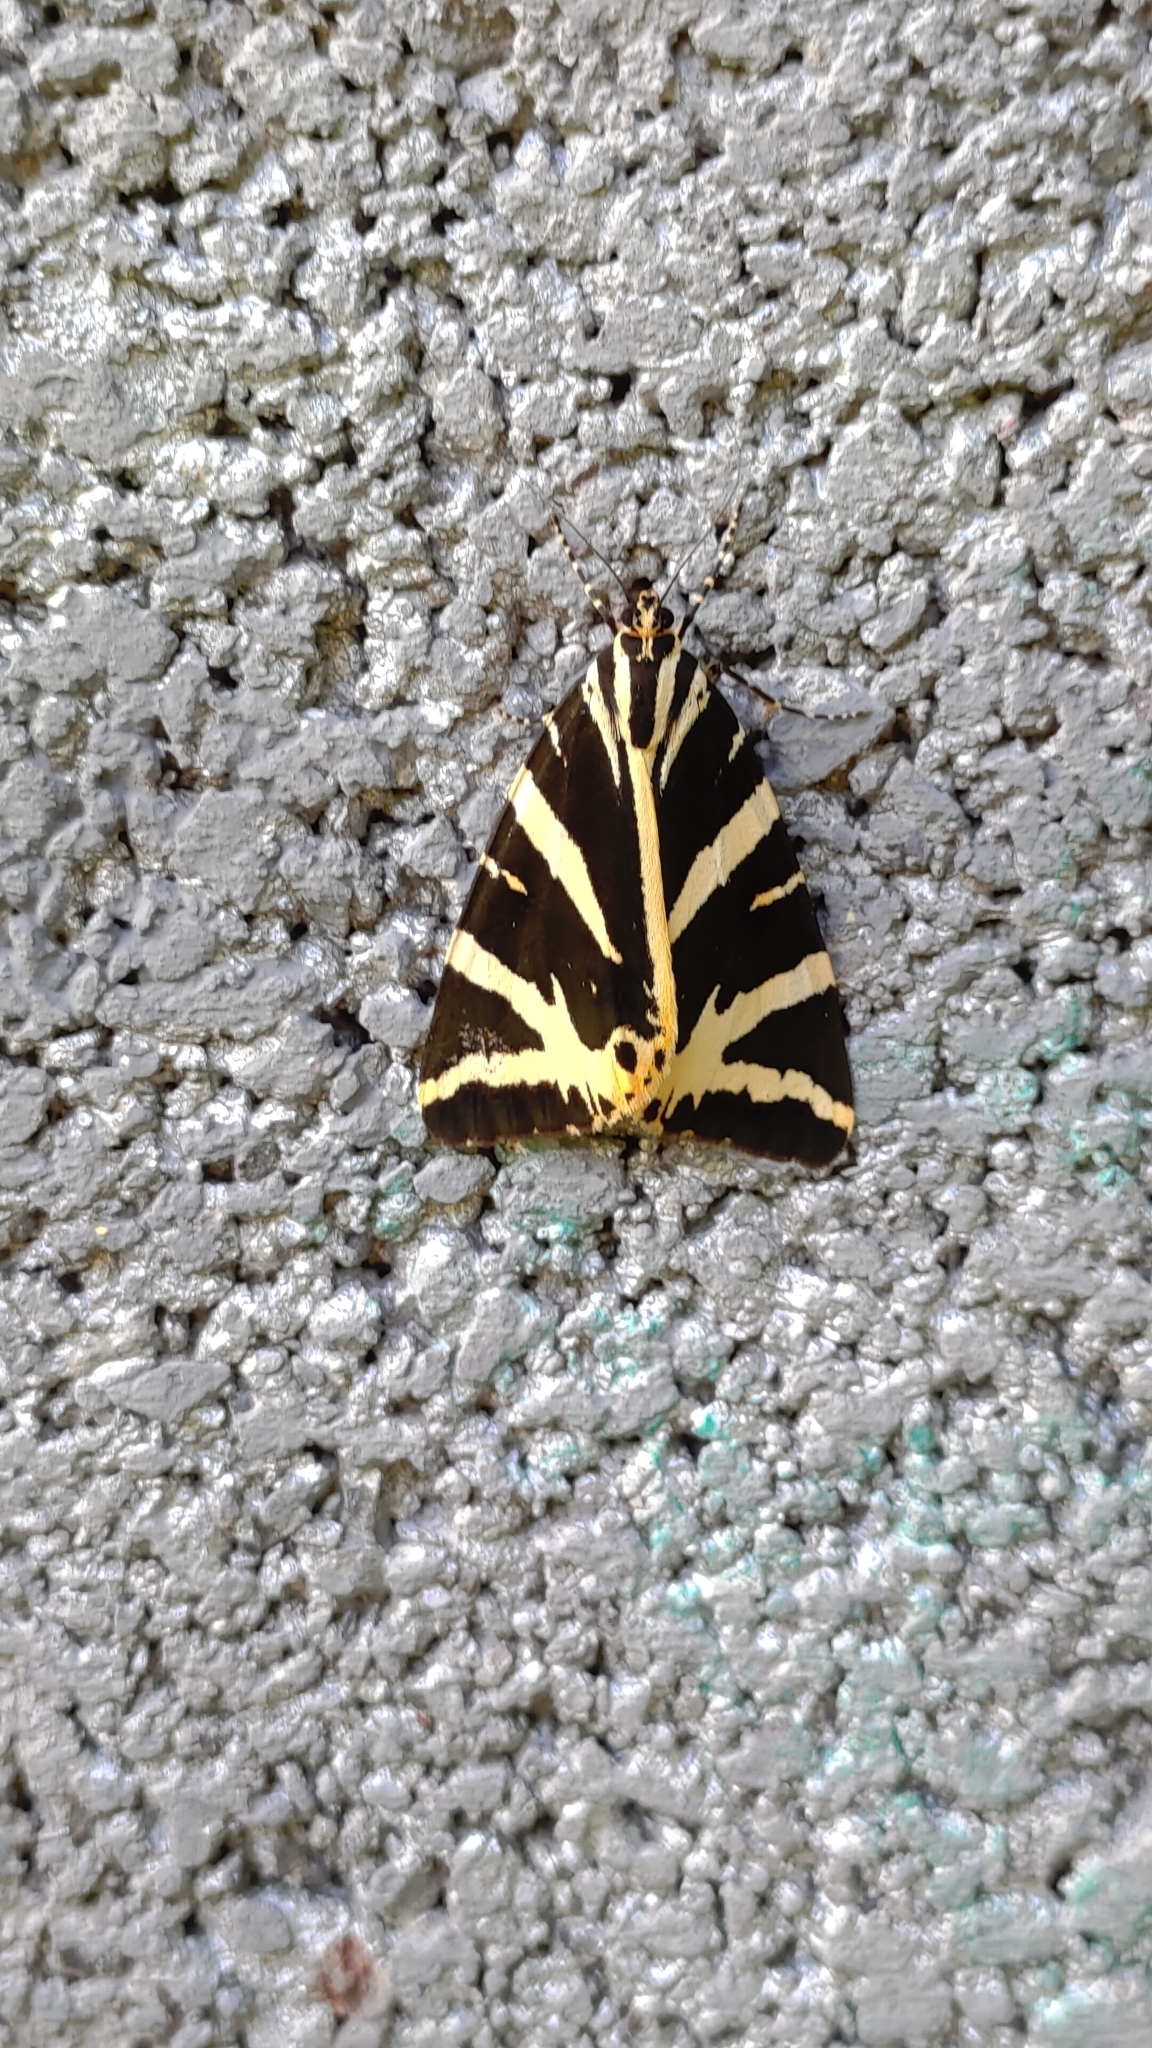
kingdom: Animalia
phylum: Arthropoda
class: Insecta
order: Lepidoptera
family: Erebidae
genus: Euplagia
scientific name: Euplagia quadripunctaria
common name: Jersey tiger
